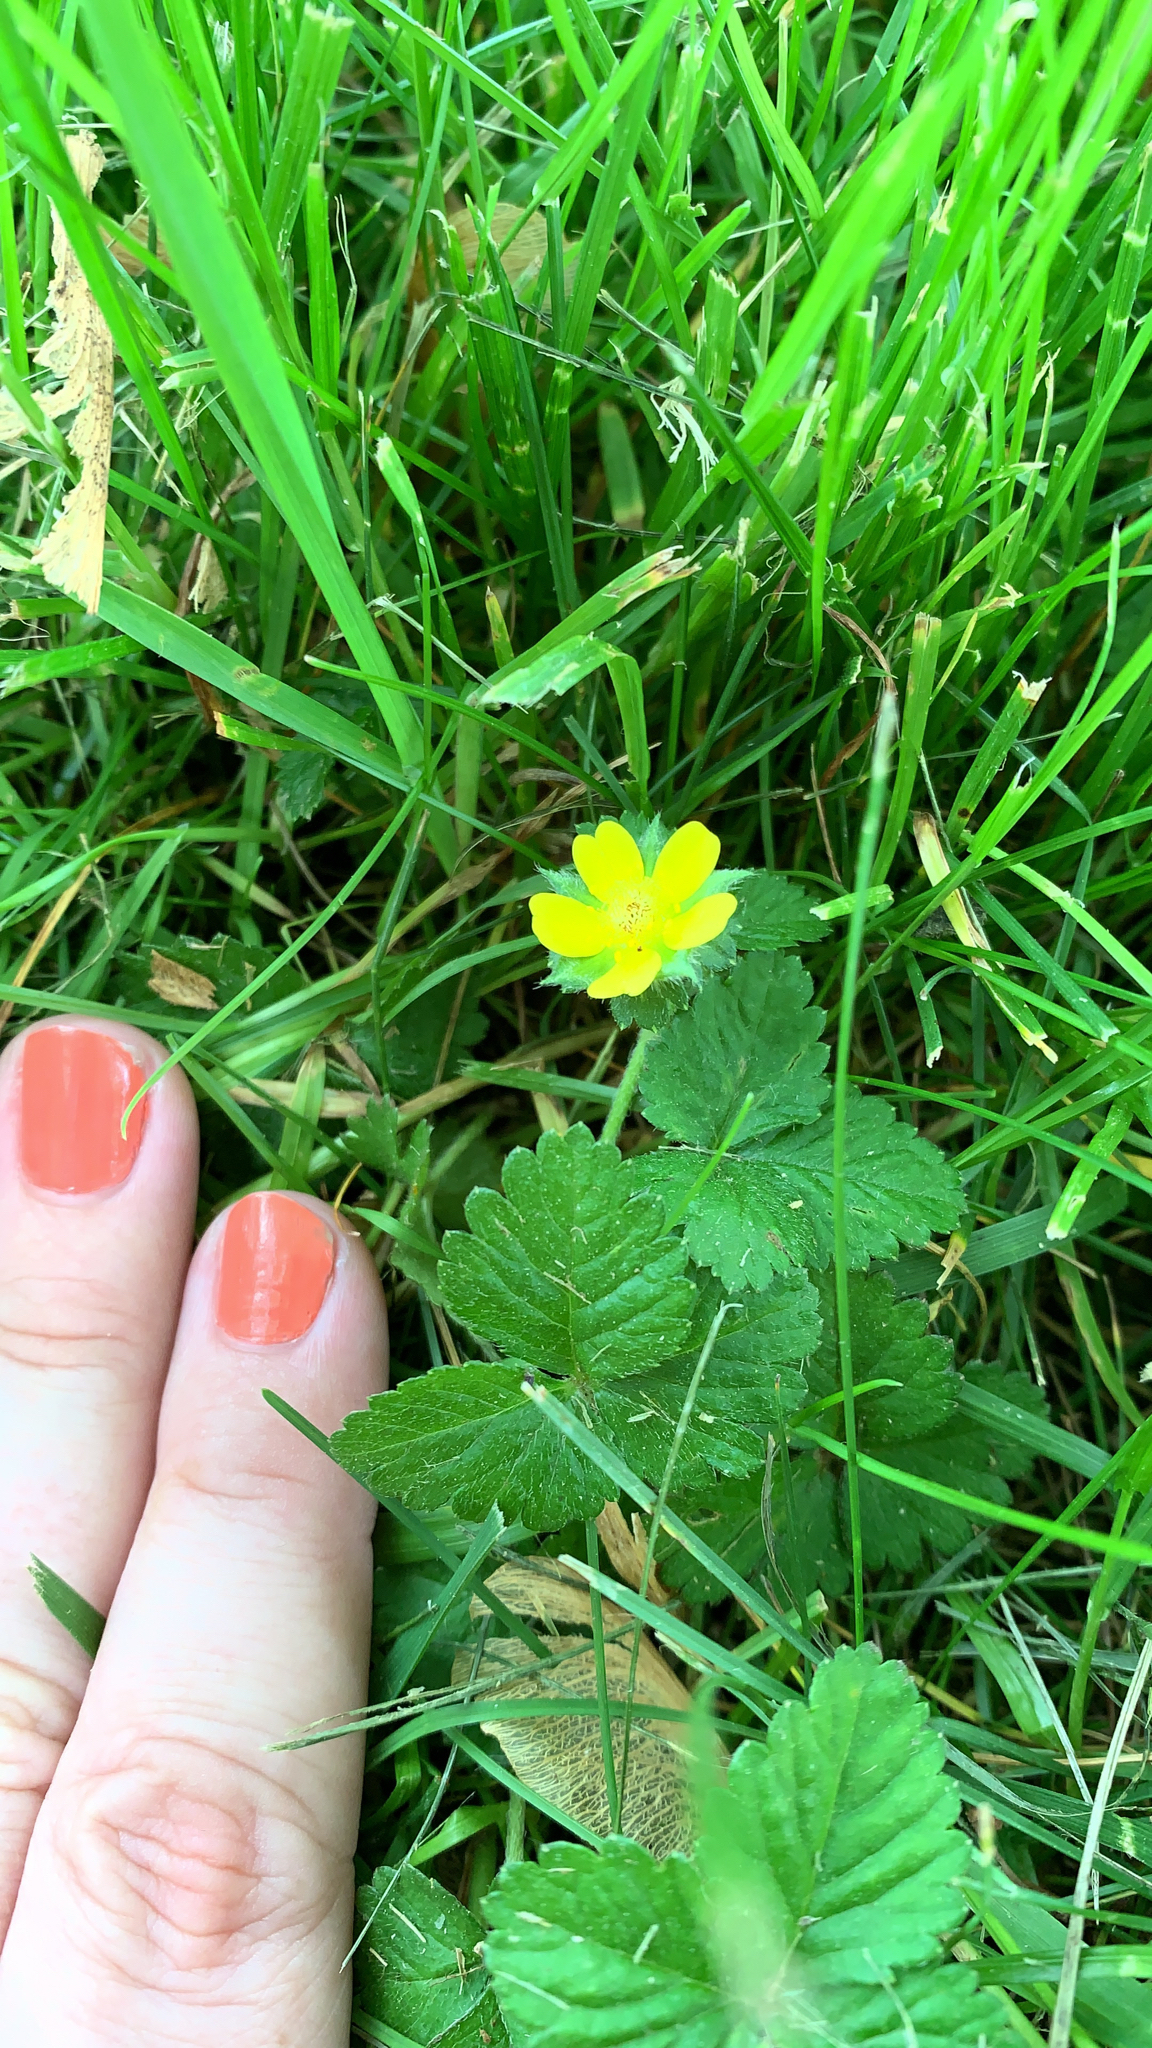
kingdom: Plantae
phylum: Tracheophyta
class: Magnoliopsida
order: Rosales
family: Rosaceae
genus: Potentilla
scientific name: Potentilla indica
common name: Yellow-flowered strawberry
